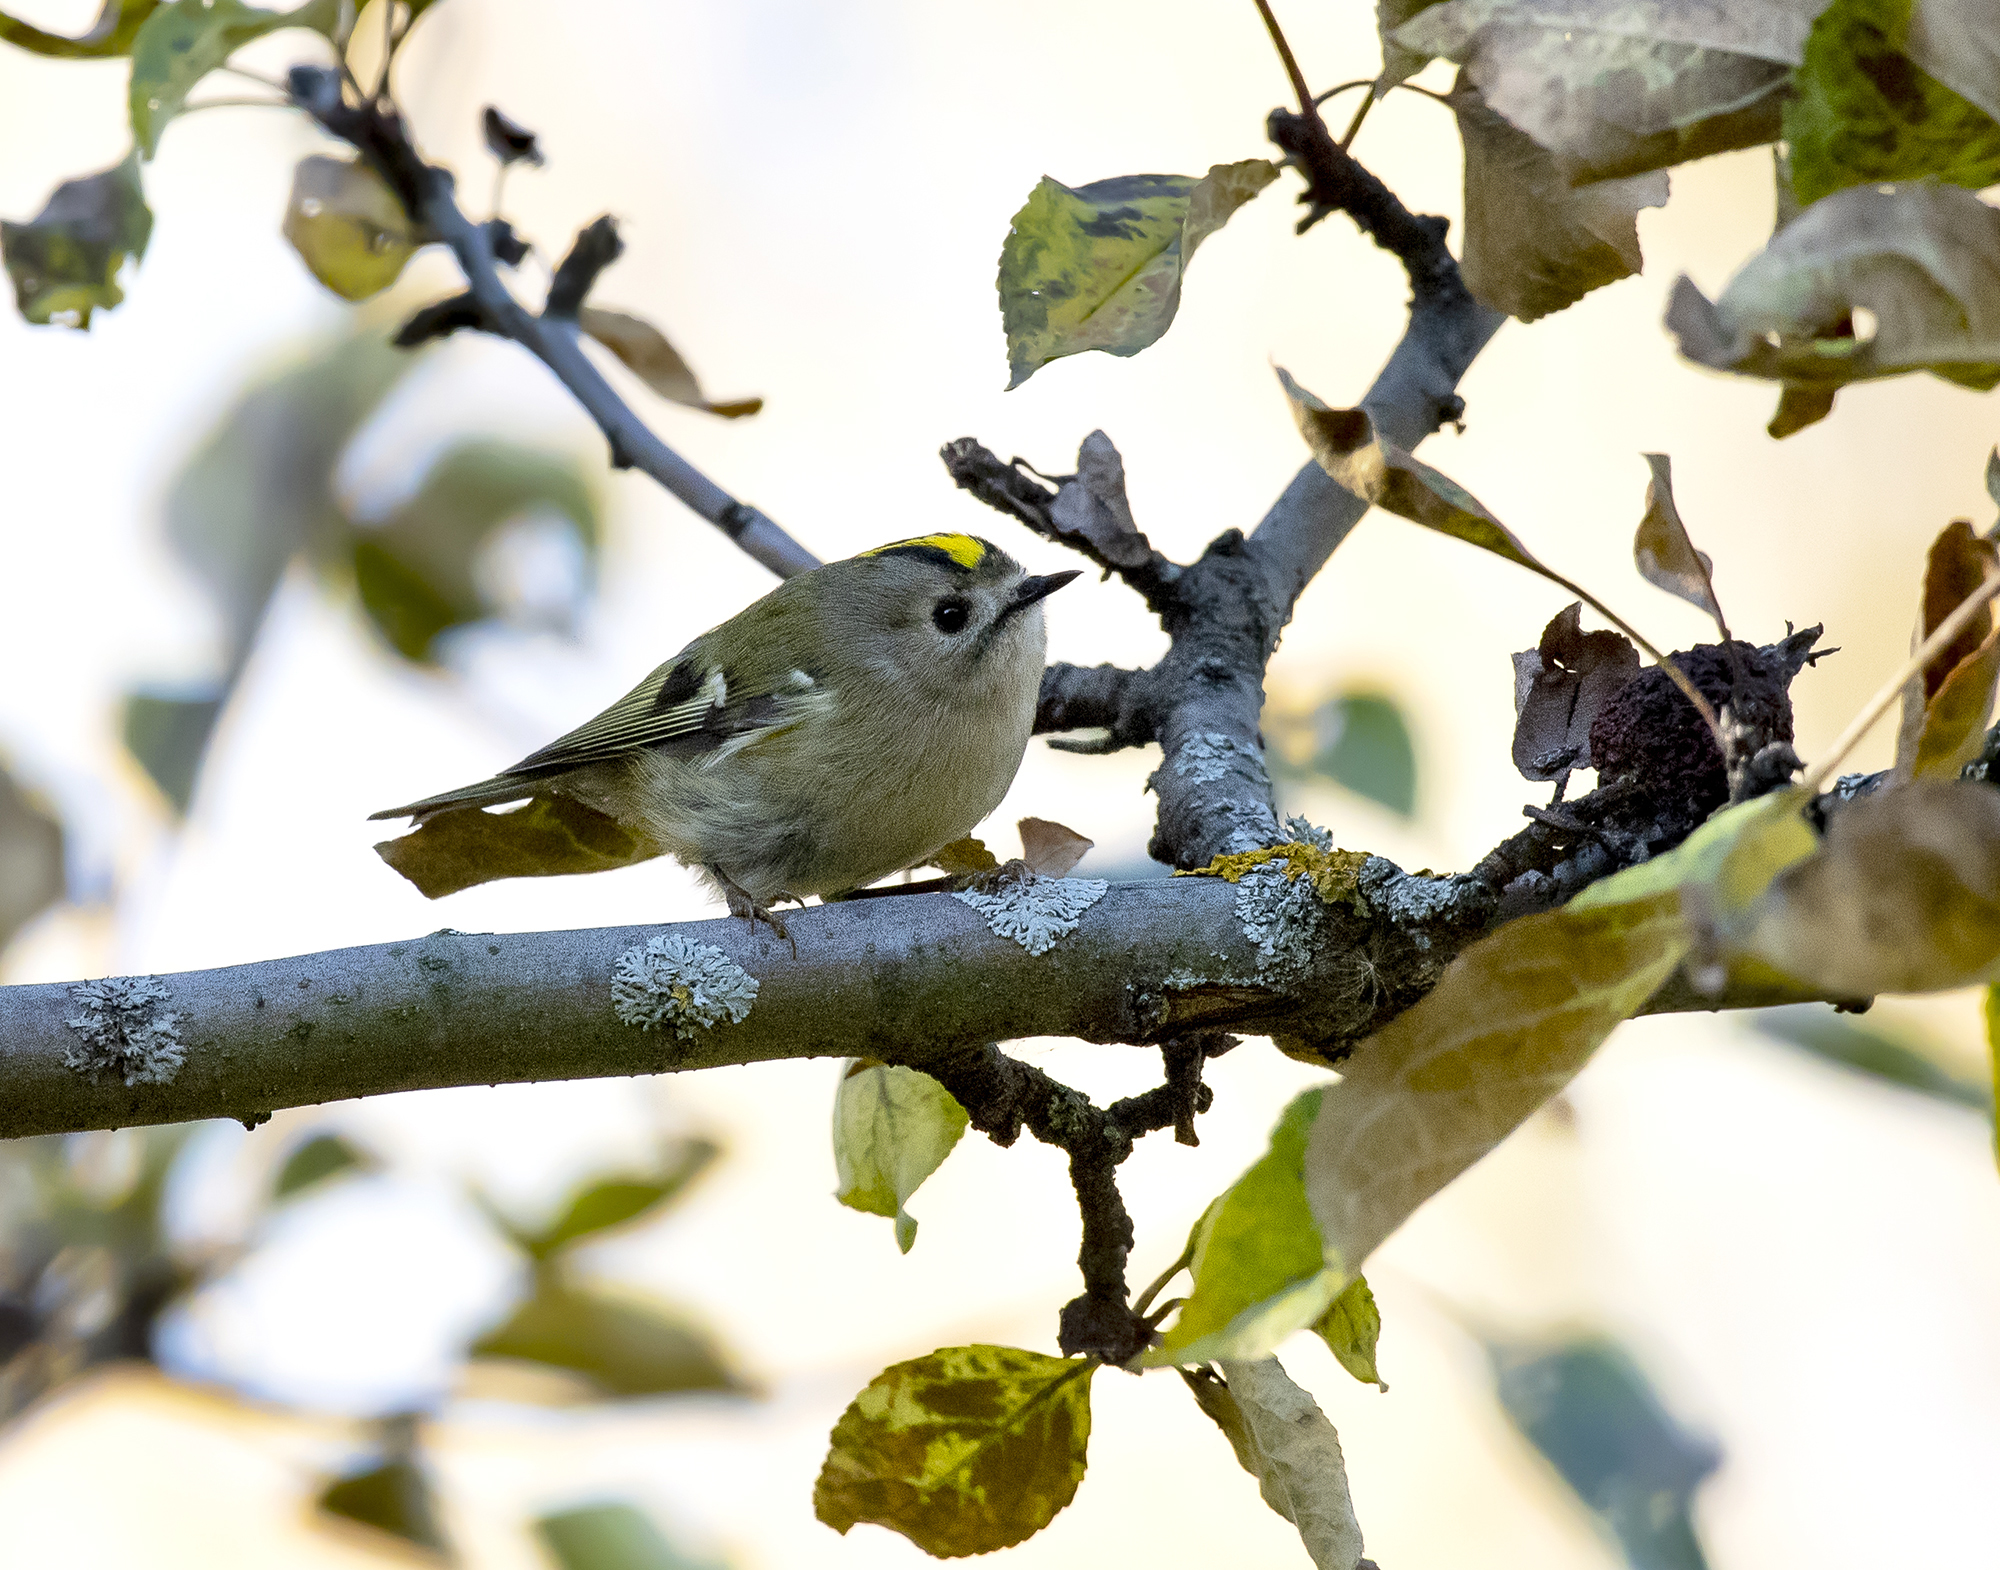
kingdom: Animalia
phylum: Chordata
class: Aves
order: Passeriformes
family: Regulidae
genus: Regulus
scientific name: Regulus regulus
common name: Goldcrest
